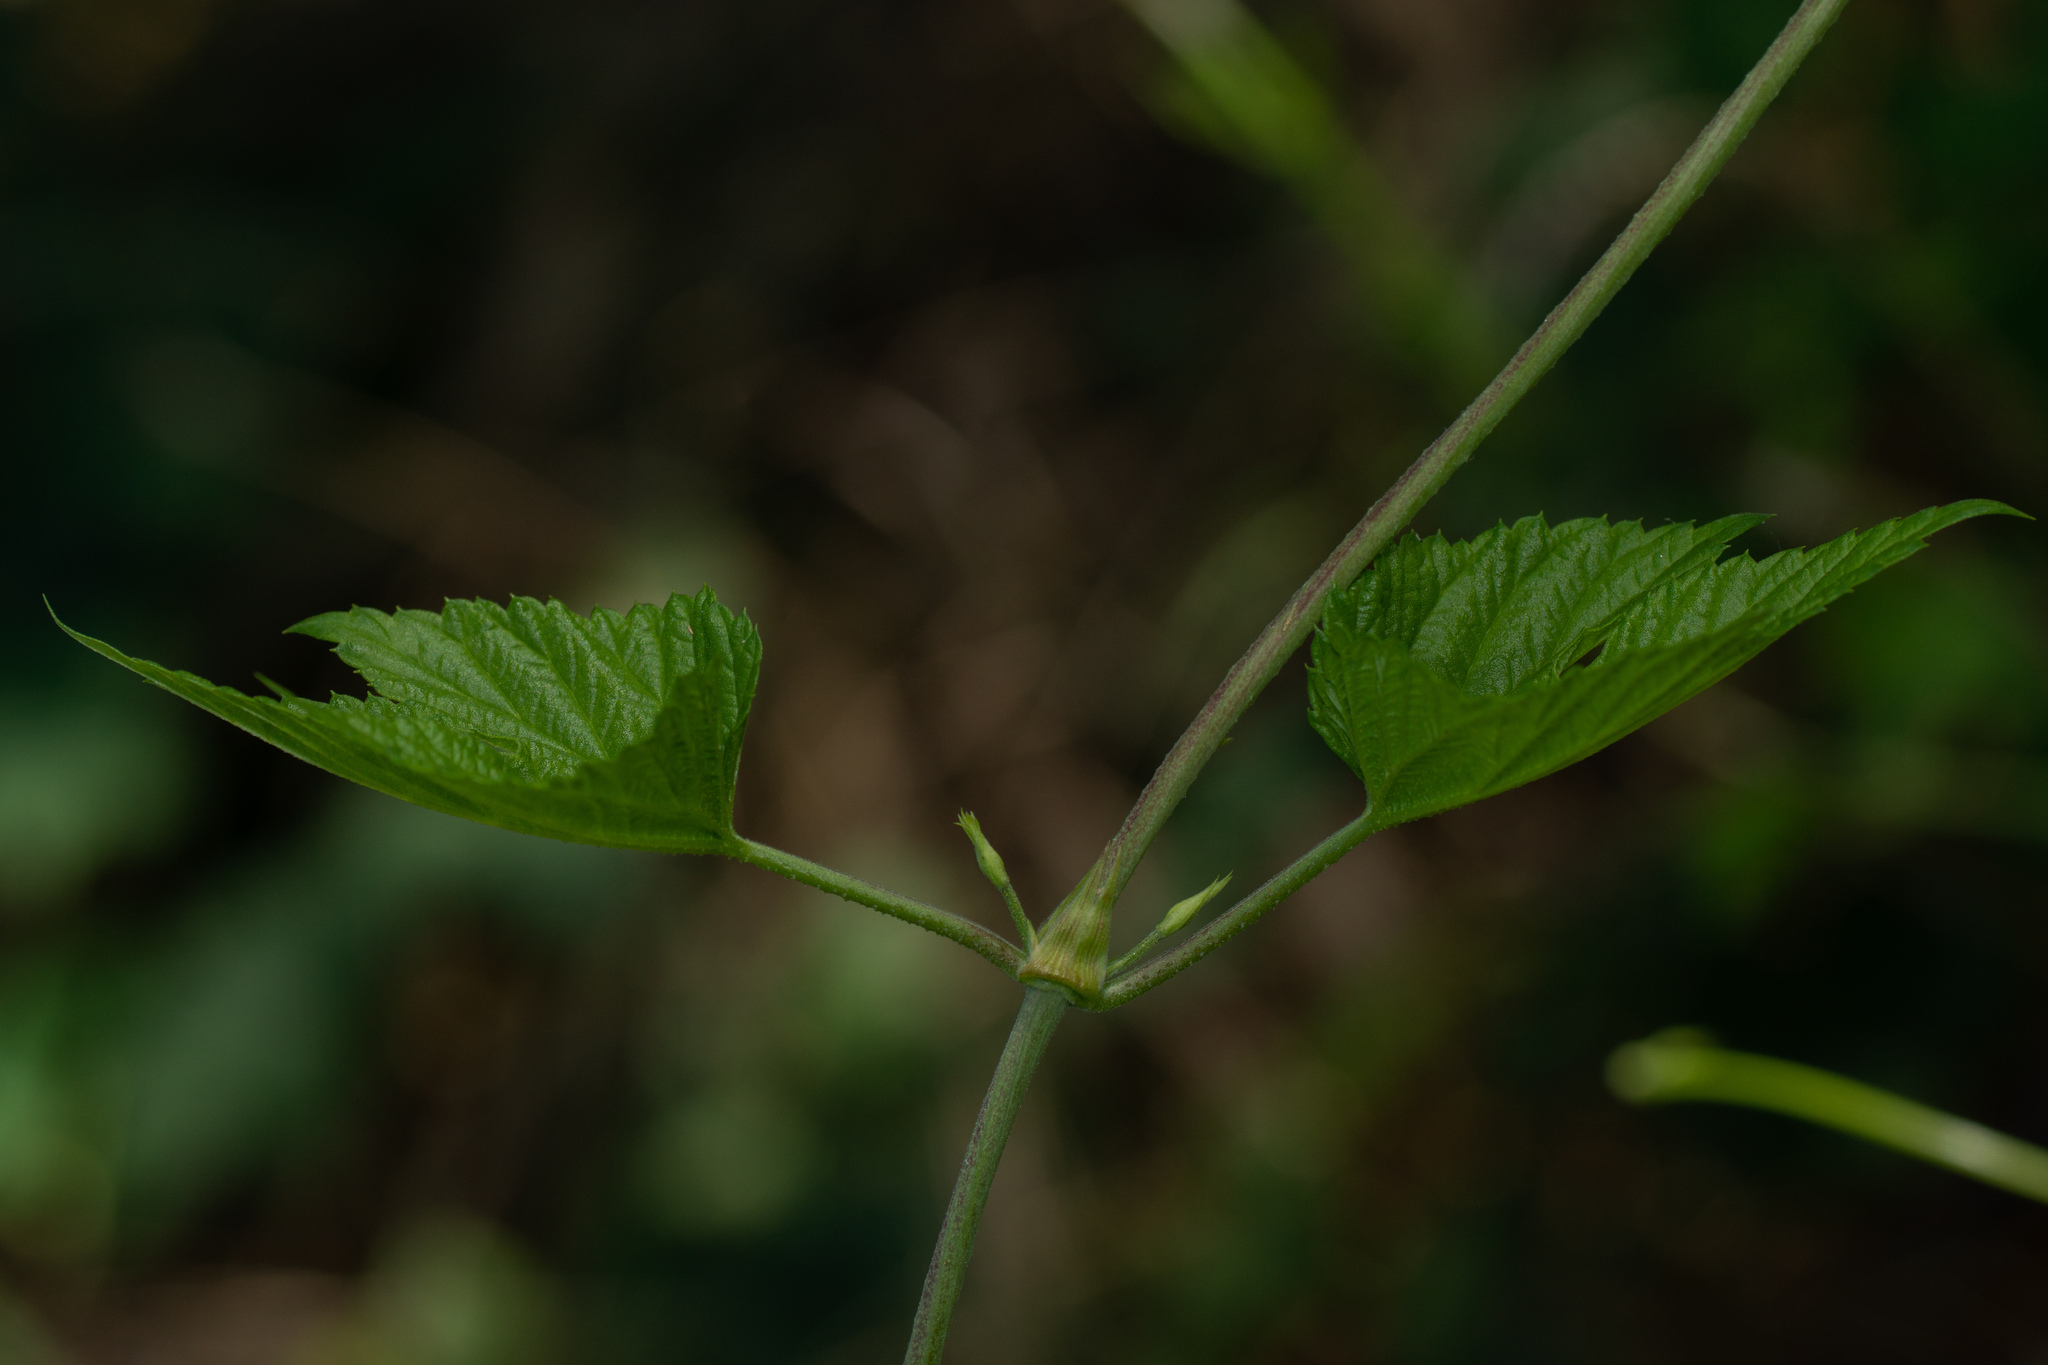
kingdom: Plantae
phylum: Tracheophyta
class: Magnoliopsida
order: Rosales
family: Cannabaceae
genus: Humulus
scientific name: Humulus lupulus
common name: Hop
